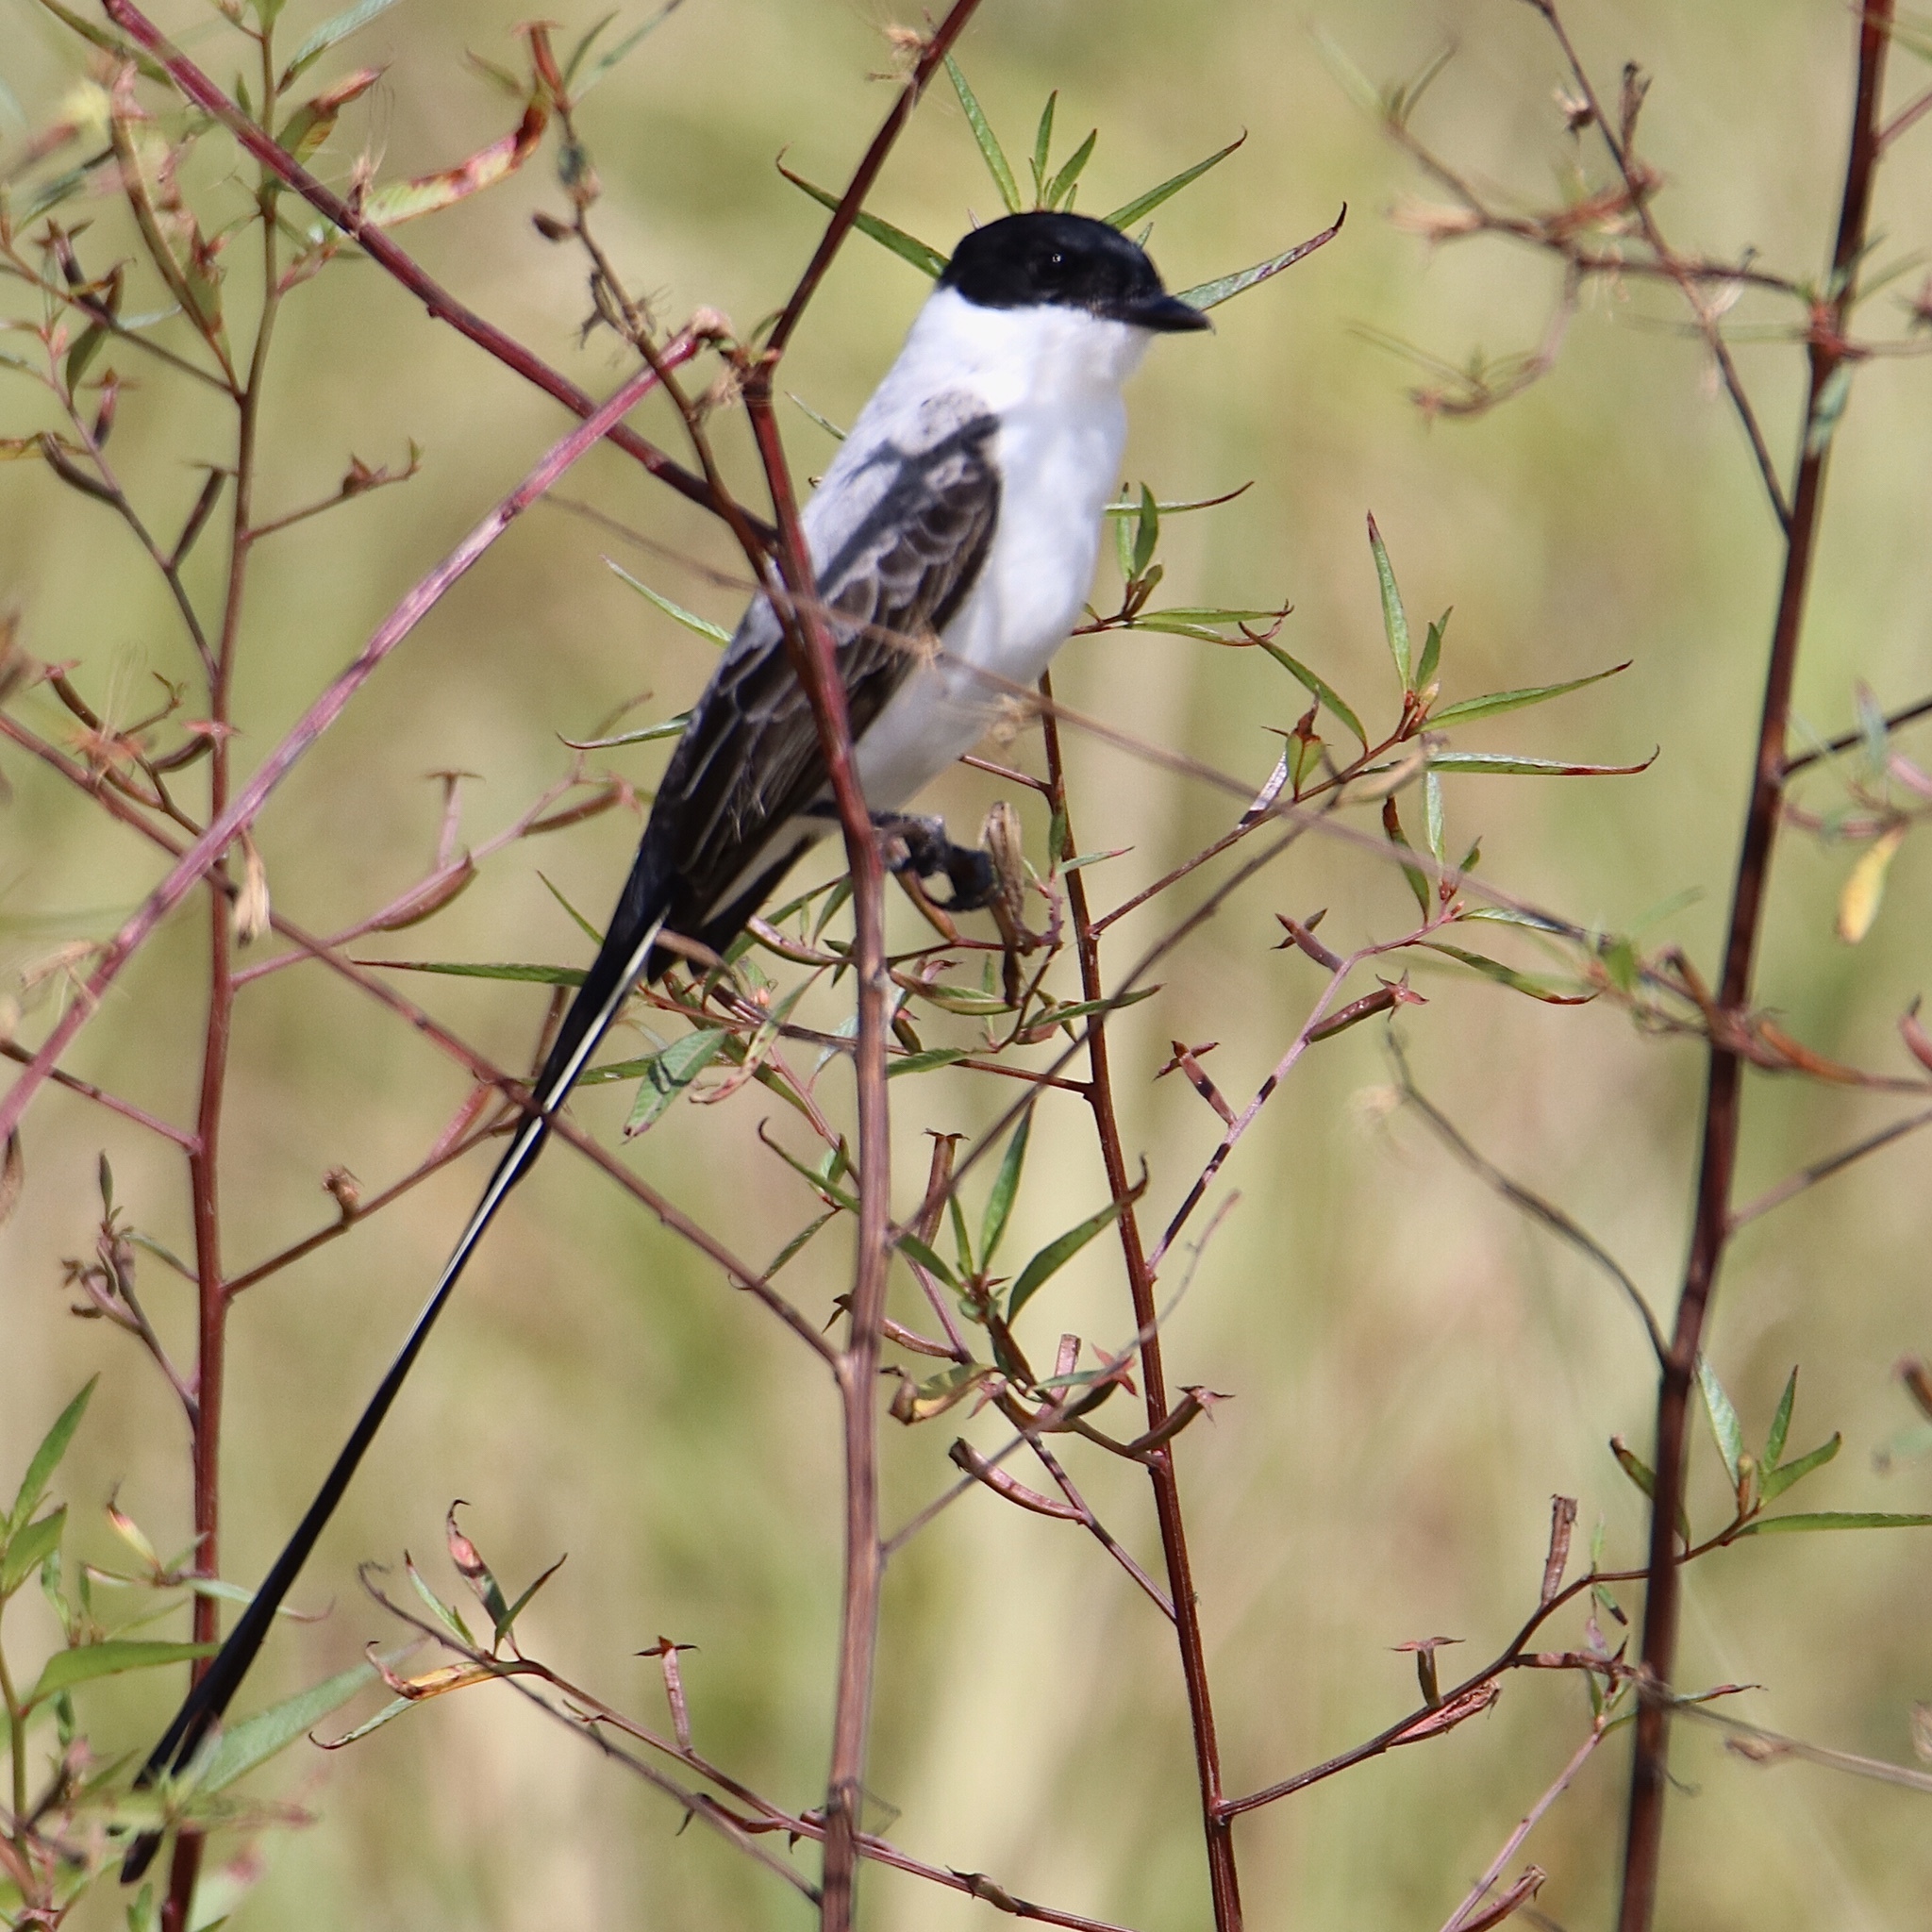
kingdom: Animalia
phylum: Chordata
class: Aves
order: Passeriformes
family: Tyrannidae
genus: Tyrannus
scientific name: Tyrannus savana
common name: Fork-tailed flycatcher
